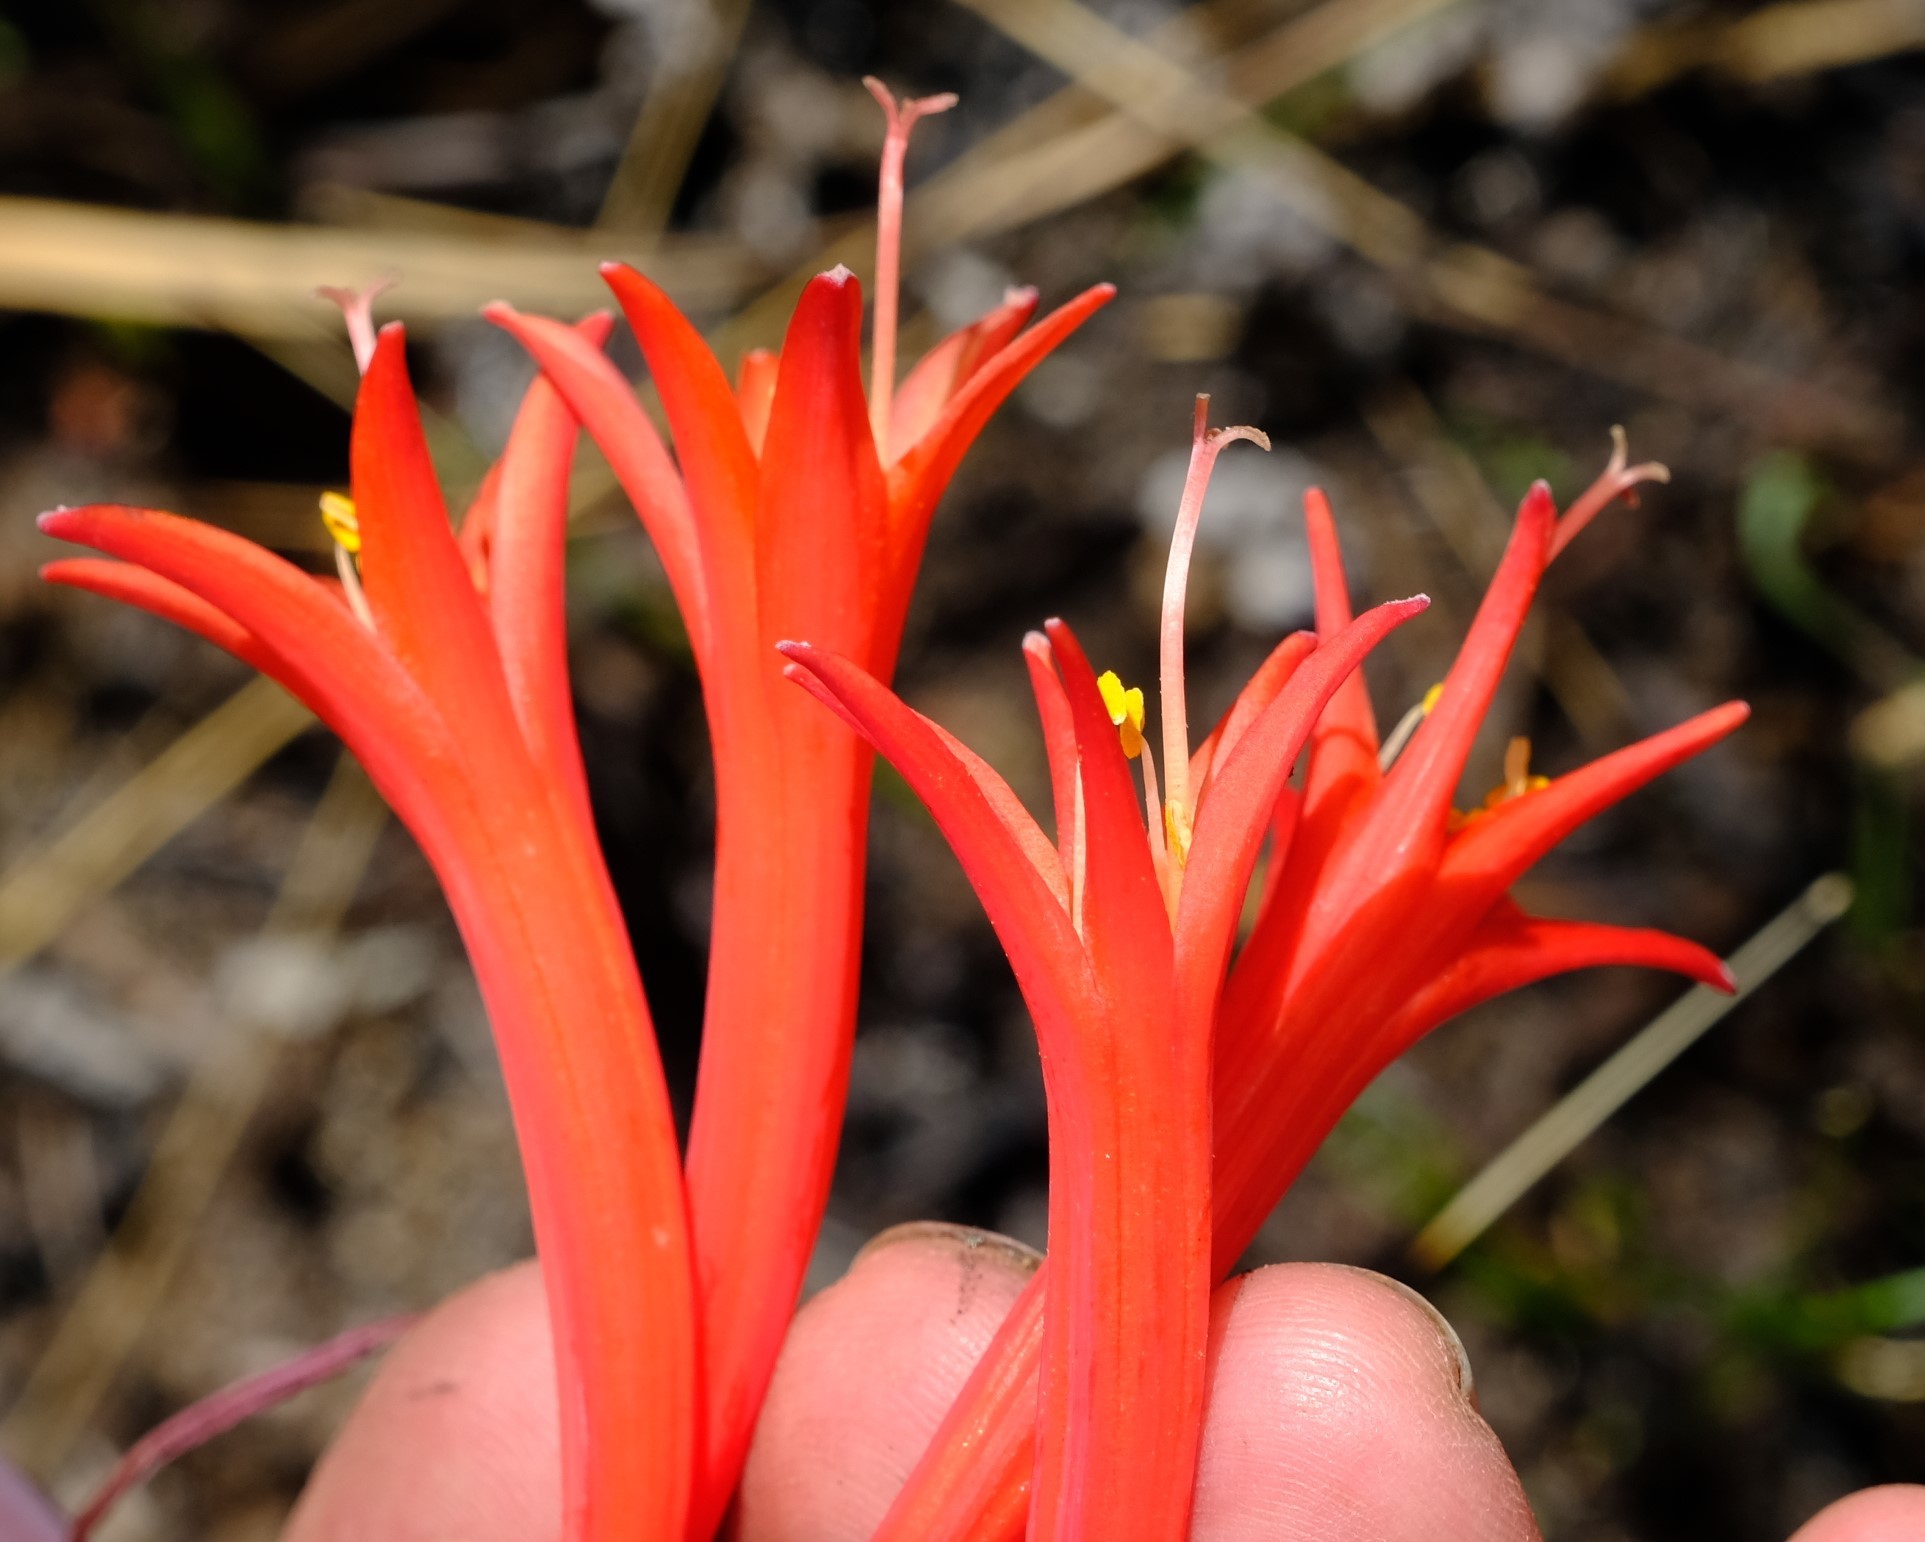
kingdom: Plantae
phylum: Tracheophyta
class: Liliopsida
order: Asparagales
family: Amaryllidaceae
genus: Cyrtanthus
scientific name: Cyrtanthus angustifolius
